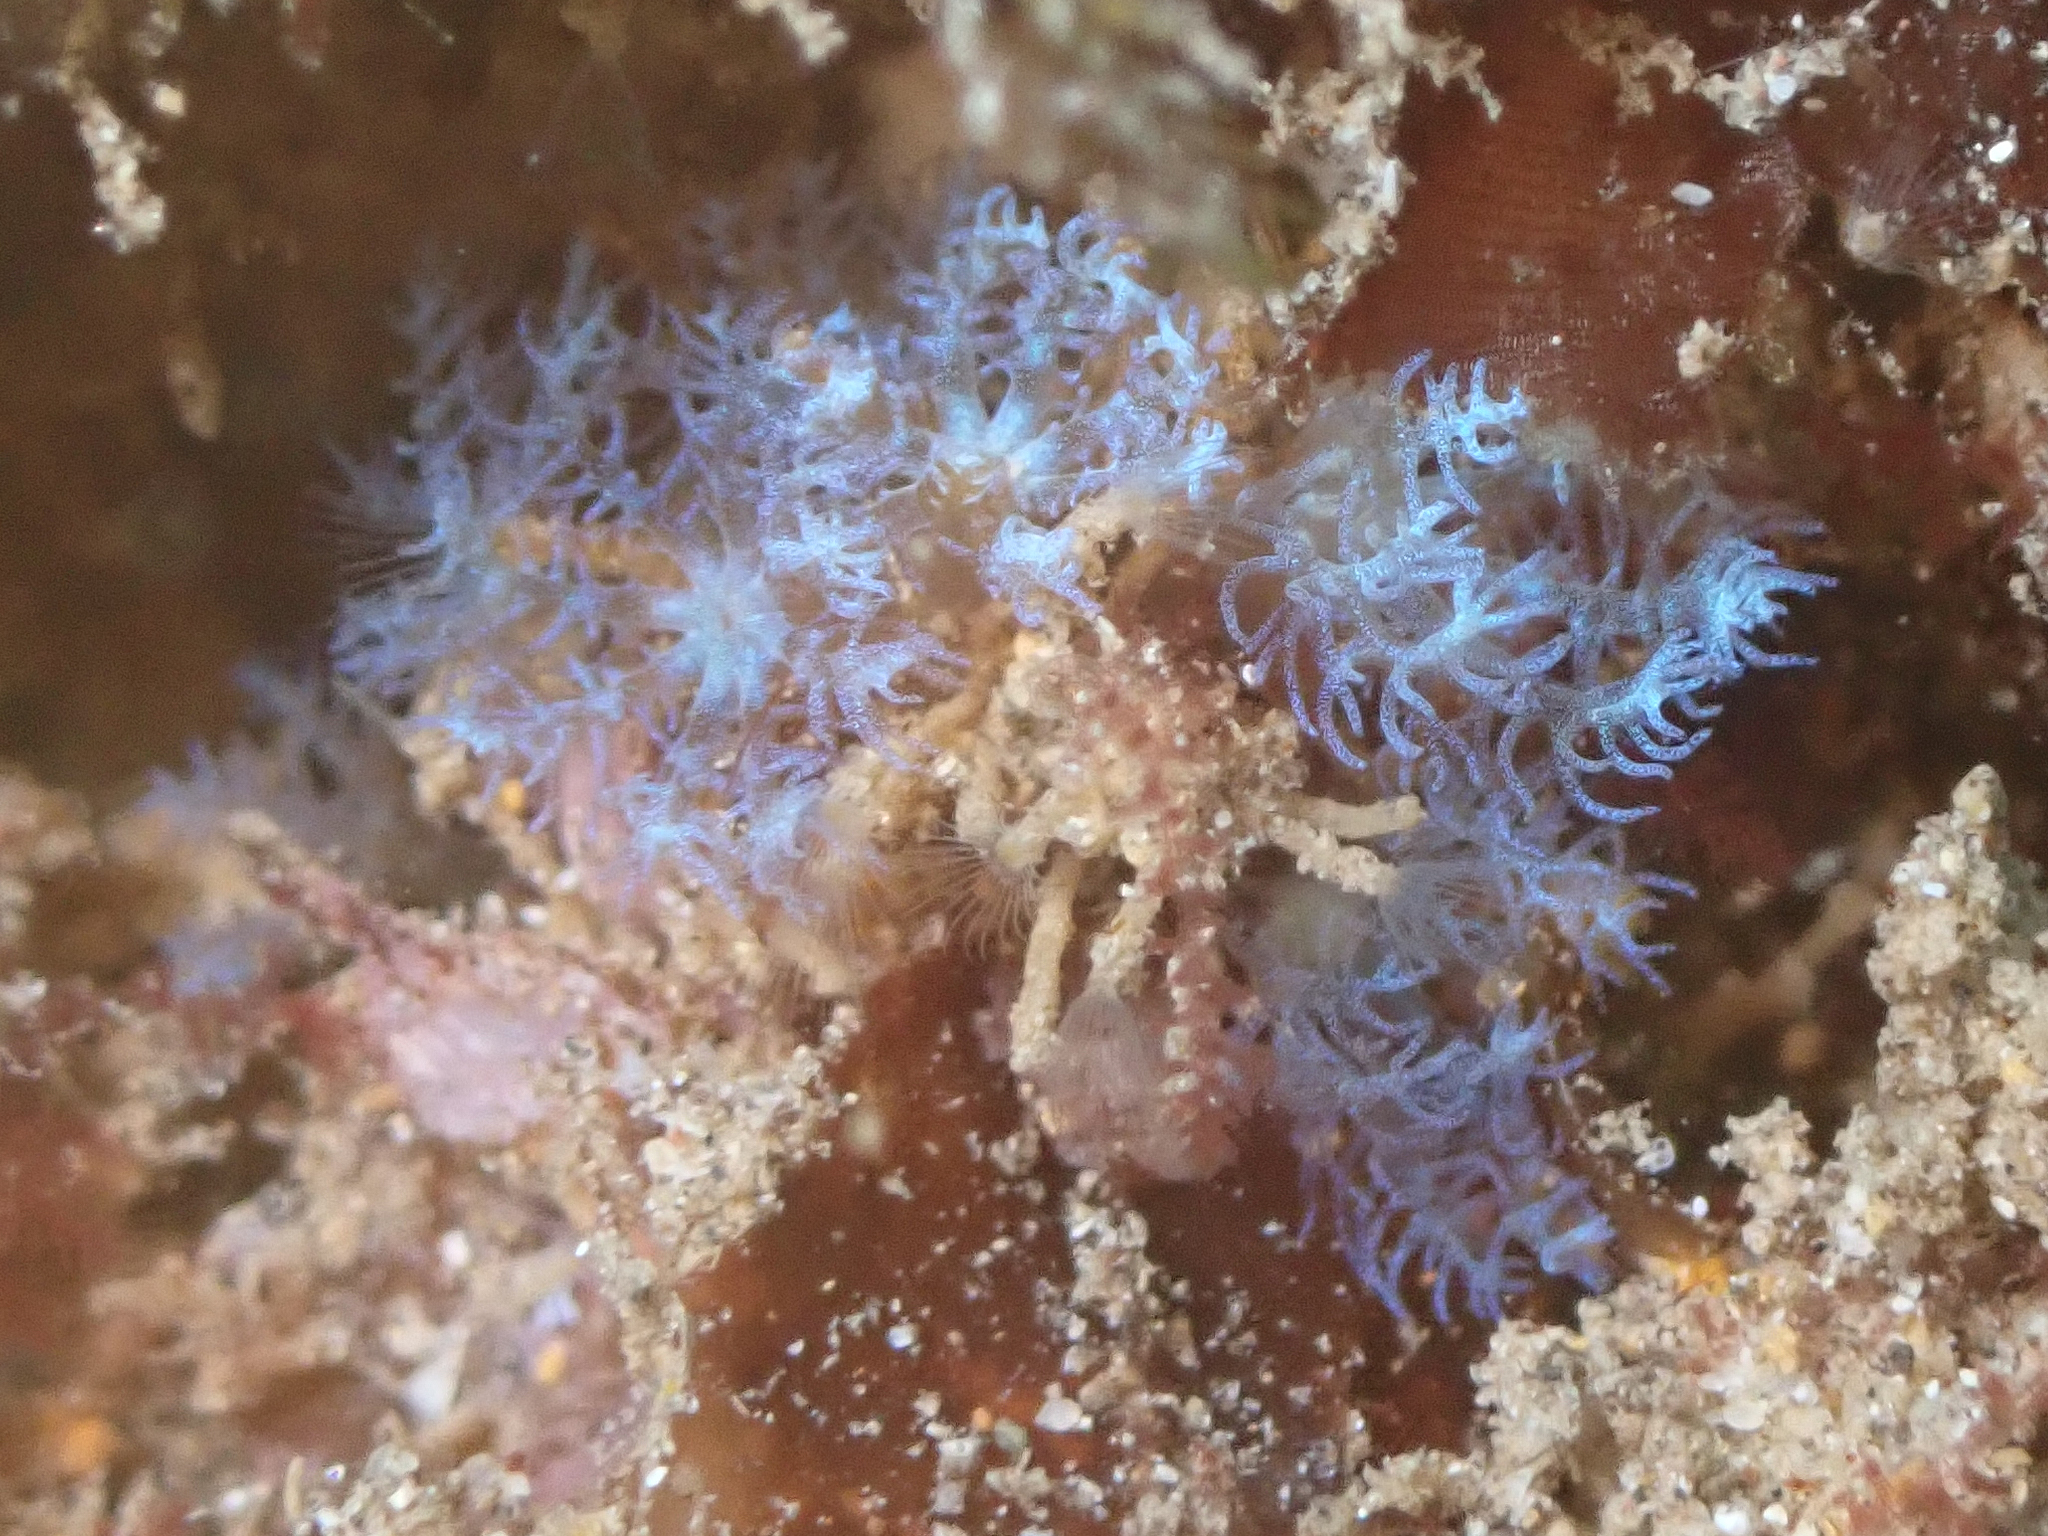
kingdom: Animalia
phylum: Cnidaria
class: Anthozoa
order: Malacalcyonacea
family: Xeniidae
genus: Sarcothelia
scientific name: Sarcothelia edmondsoni
